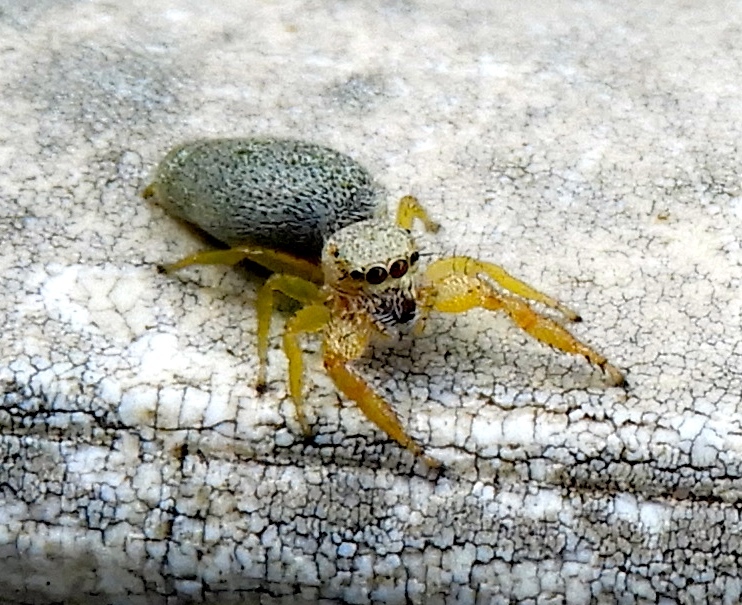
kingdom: Animalia
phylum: Arthropoda
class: Arachnida
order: Araneae
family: Salticidae
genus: Hentzia
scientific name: Hentzia palmarum
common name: Common hentz jumping spider
